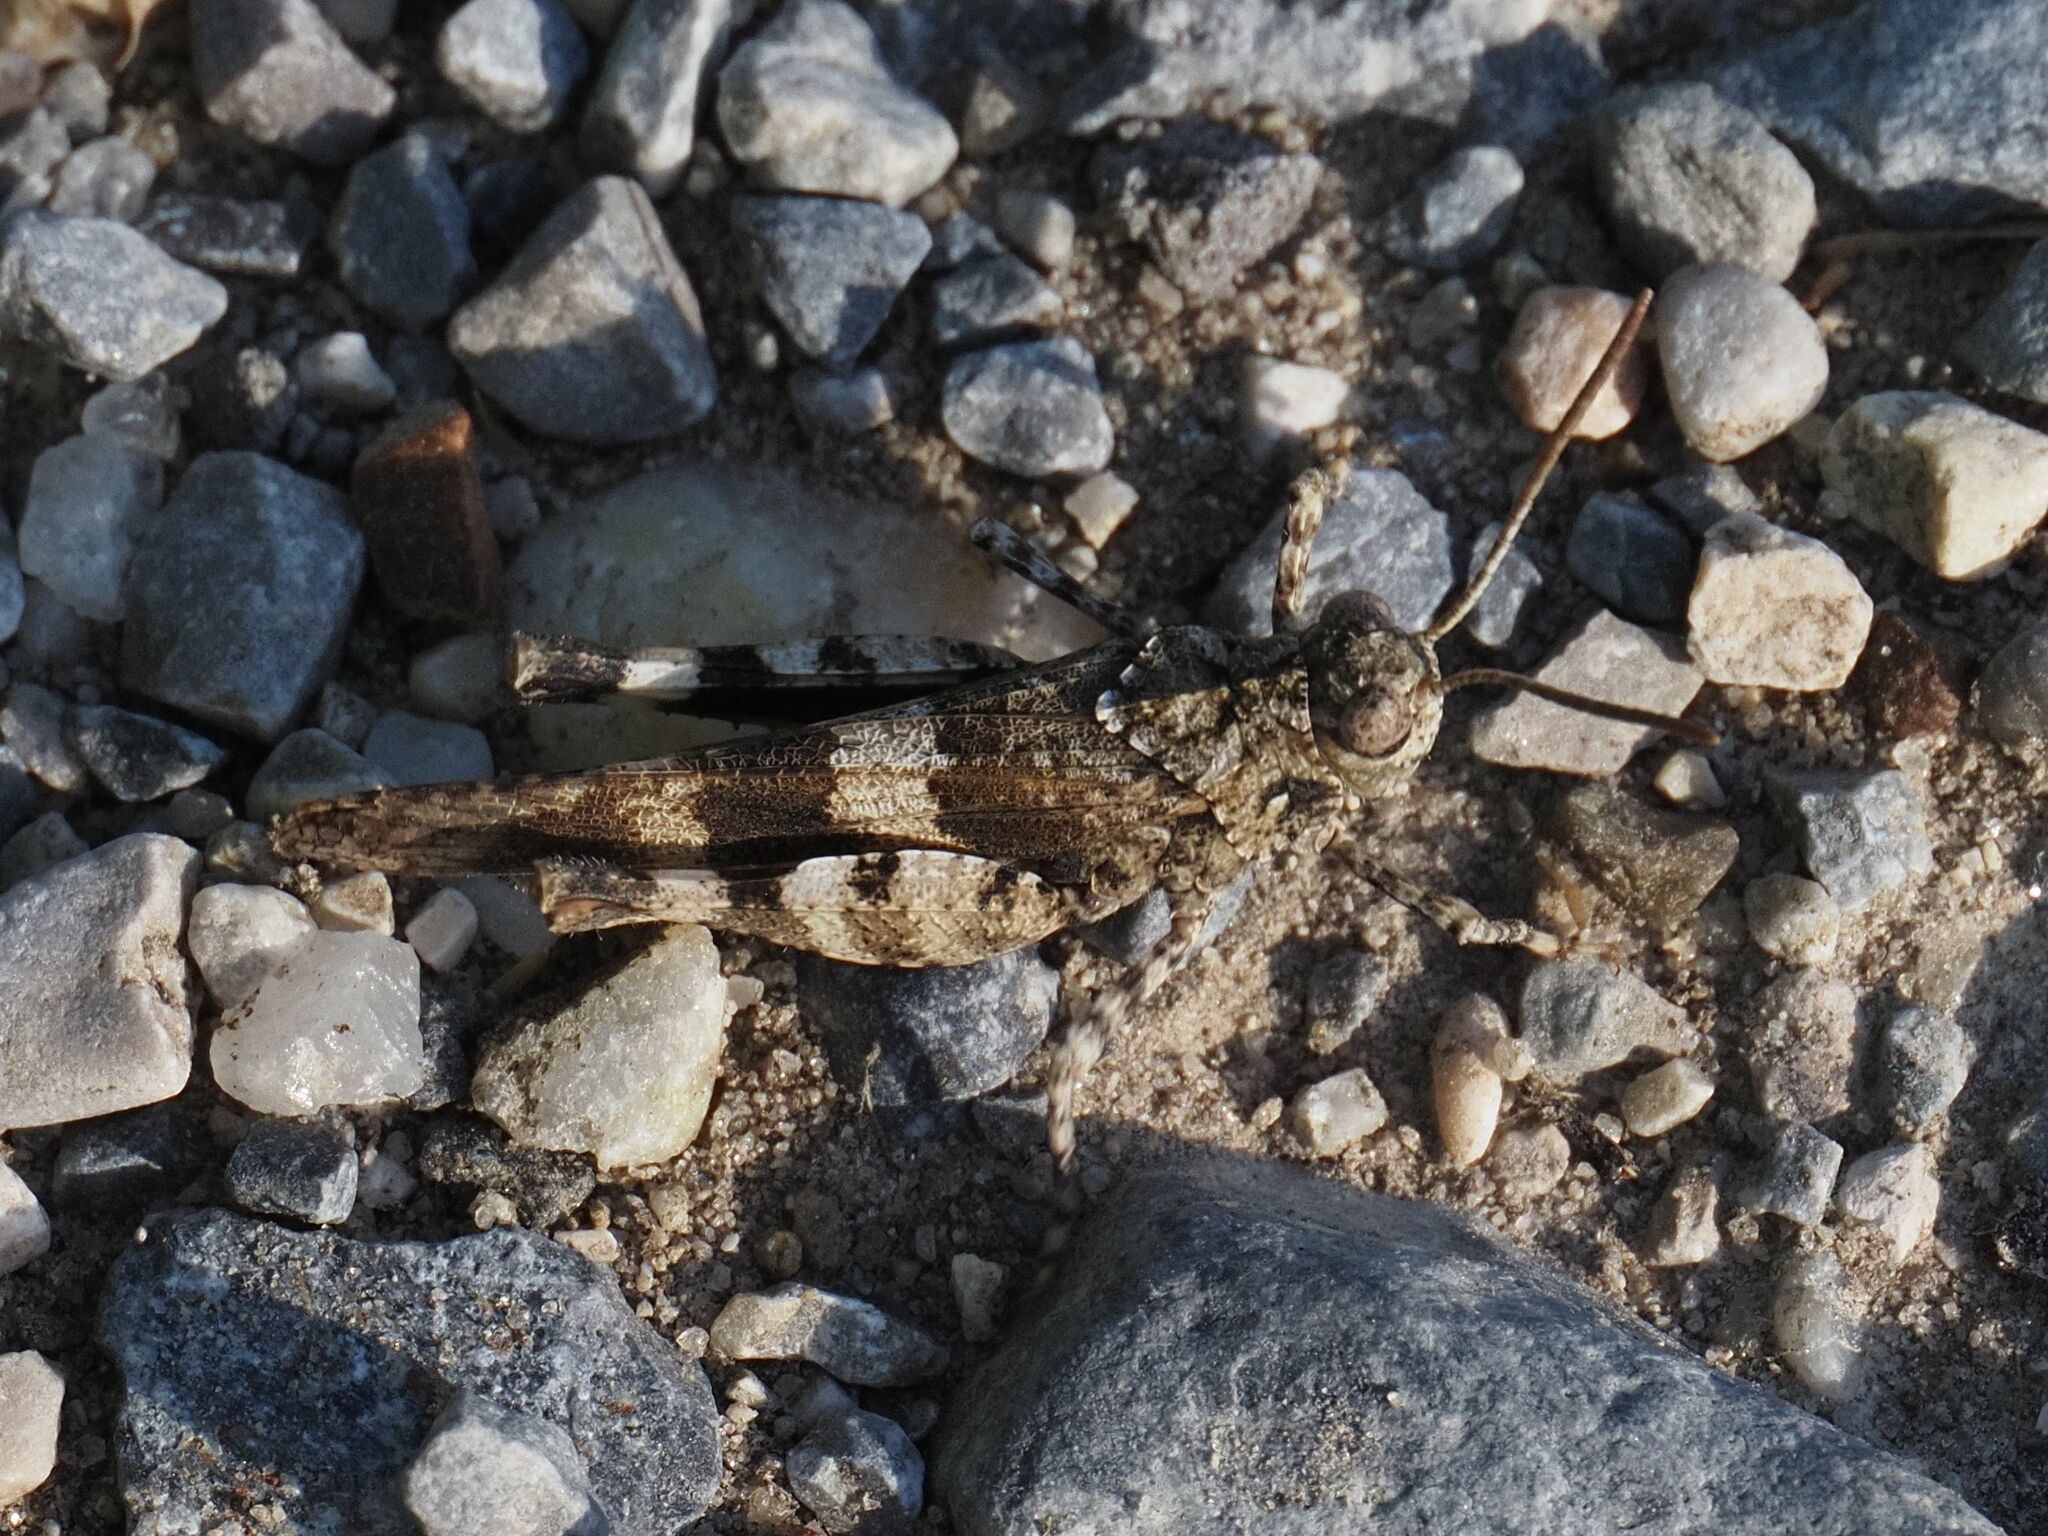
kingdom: Animalia
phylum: Arthropoda
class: Insecta
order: Orthoptera
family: Acrididae
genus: Oedipoda
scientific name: Oedipoda caerulescens
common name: Blue-winged grasshopper
